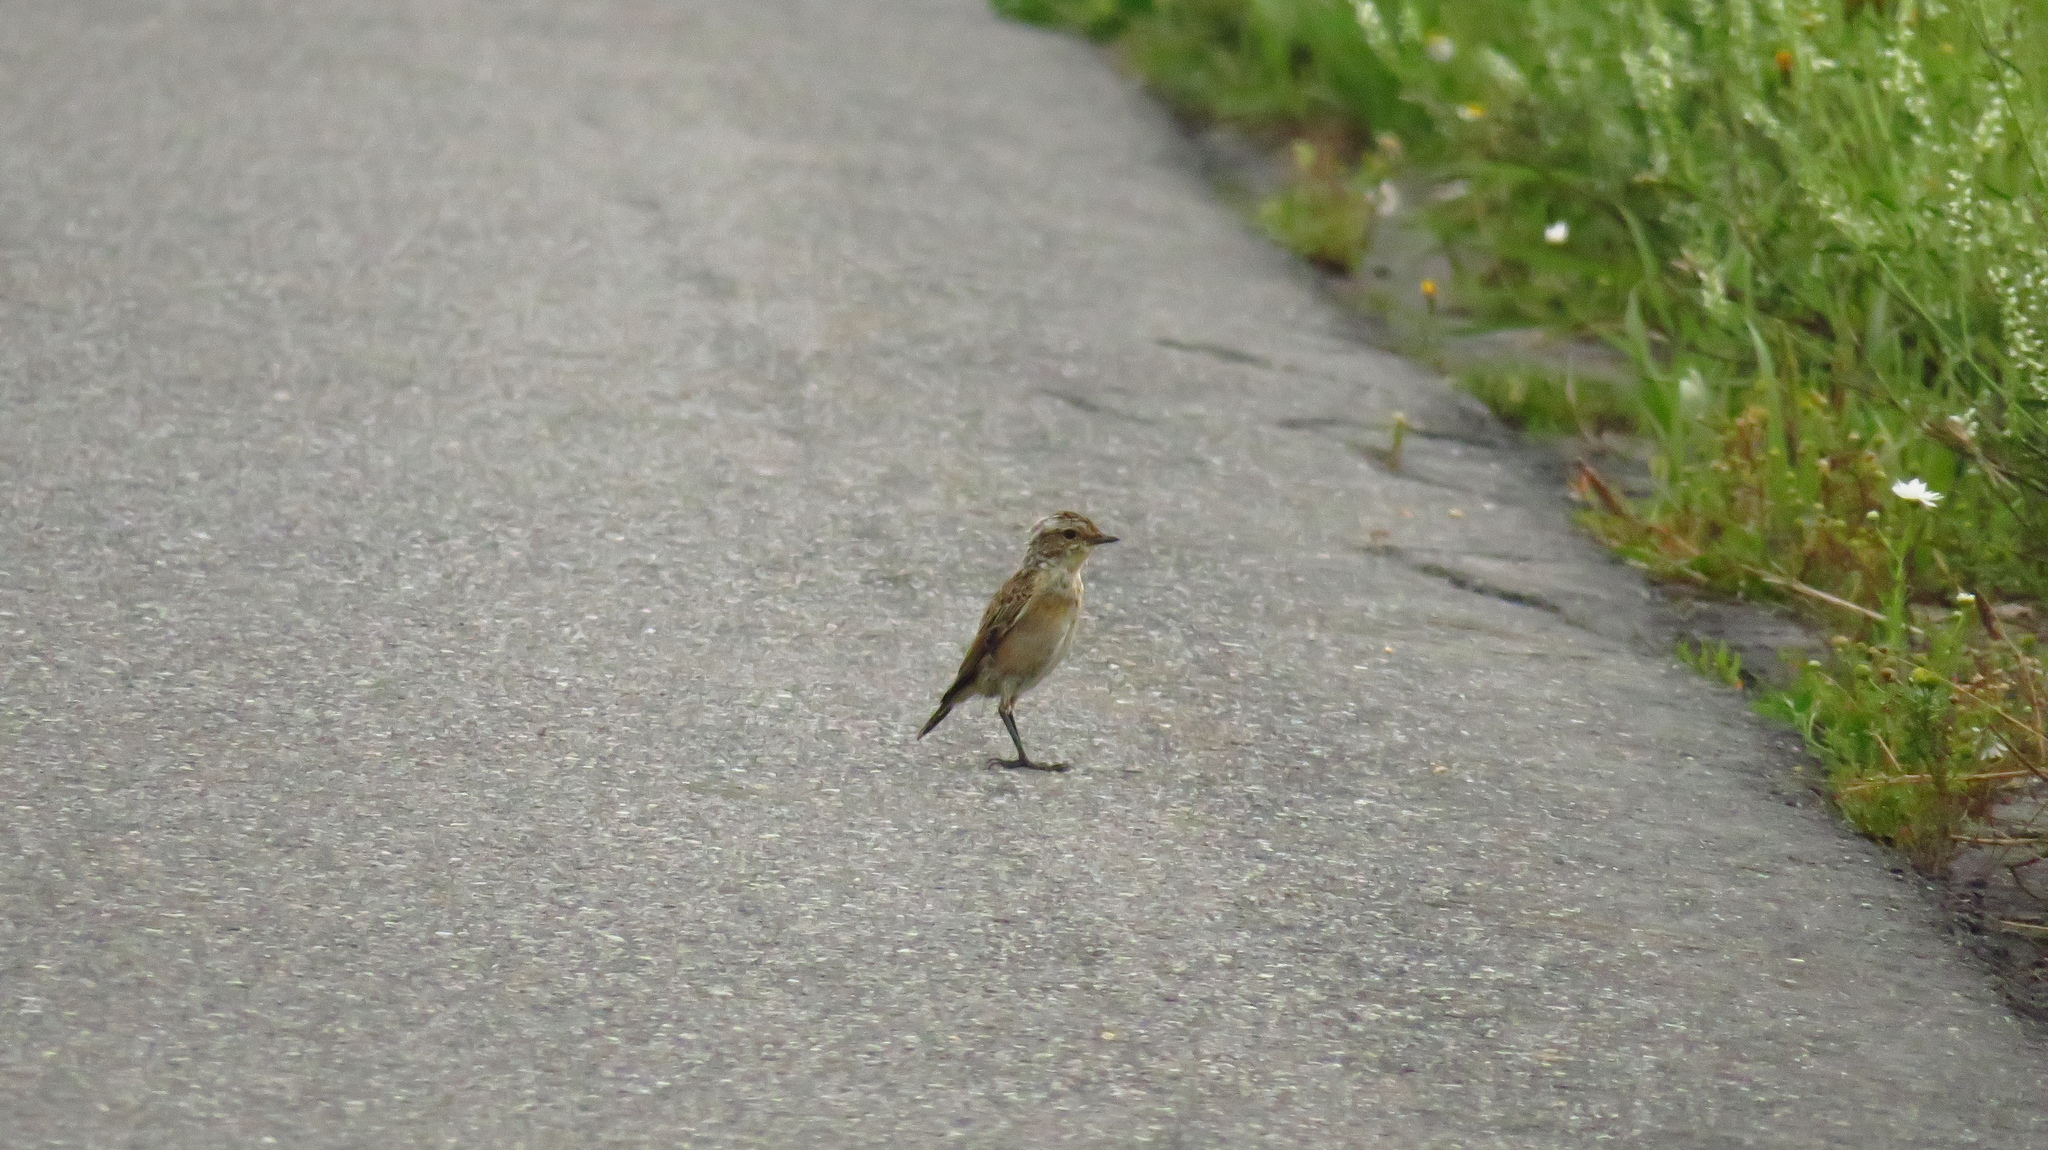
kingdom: Animalia
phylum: Chordata
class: Aves
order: Passeriformes
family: Muscicapidae
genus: Saxicola
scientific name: Saxicola rubetra
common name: Whinchat
